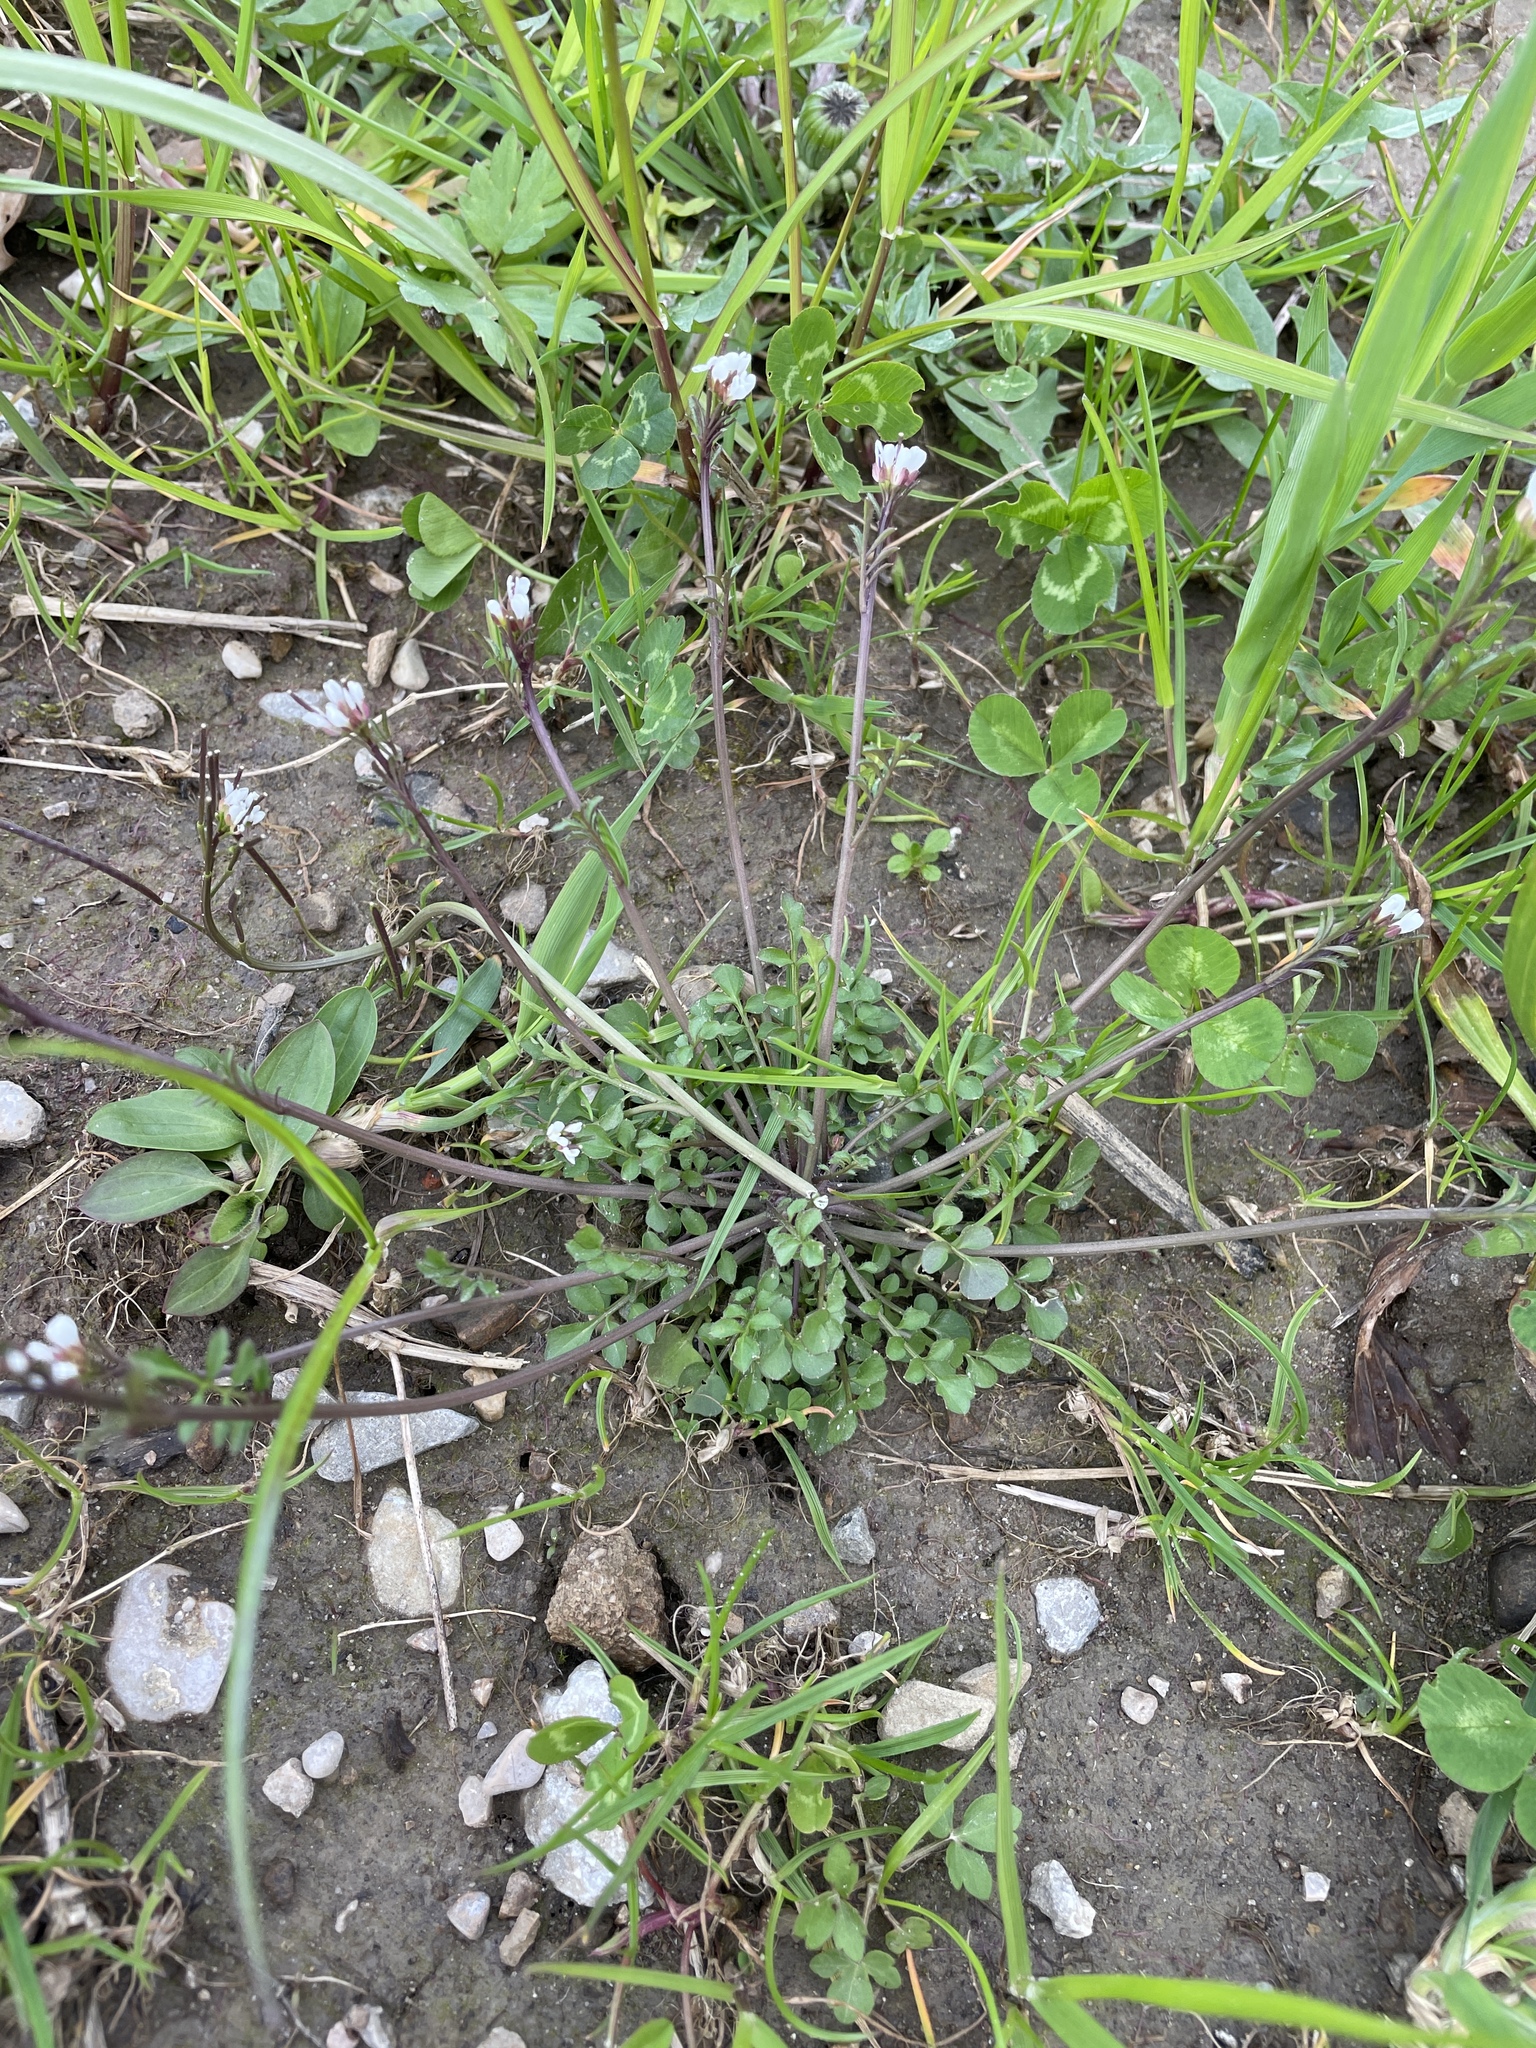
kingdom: Plantae
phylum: Tracheophyta
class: Magnoliopsida
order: Brassicales
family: Brassicaceae
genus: Cardamine
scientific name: Cardamine hirsuta
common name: Hairy bittercress
